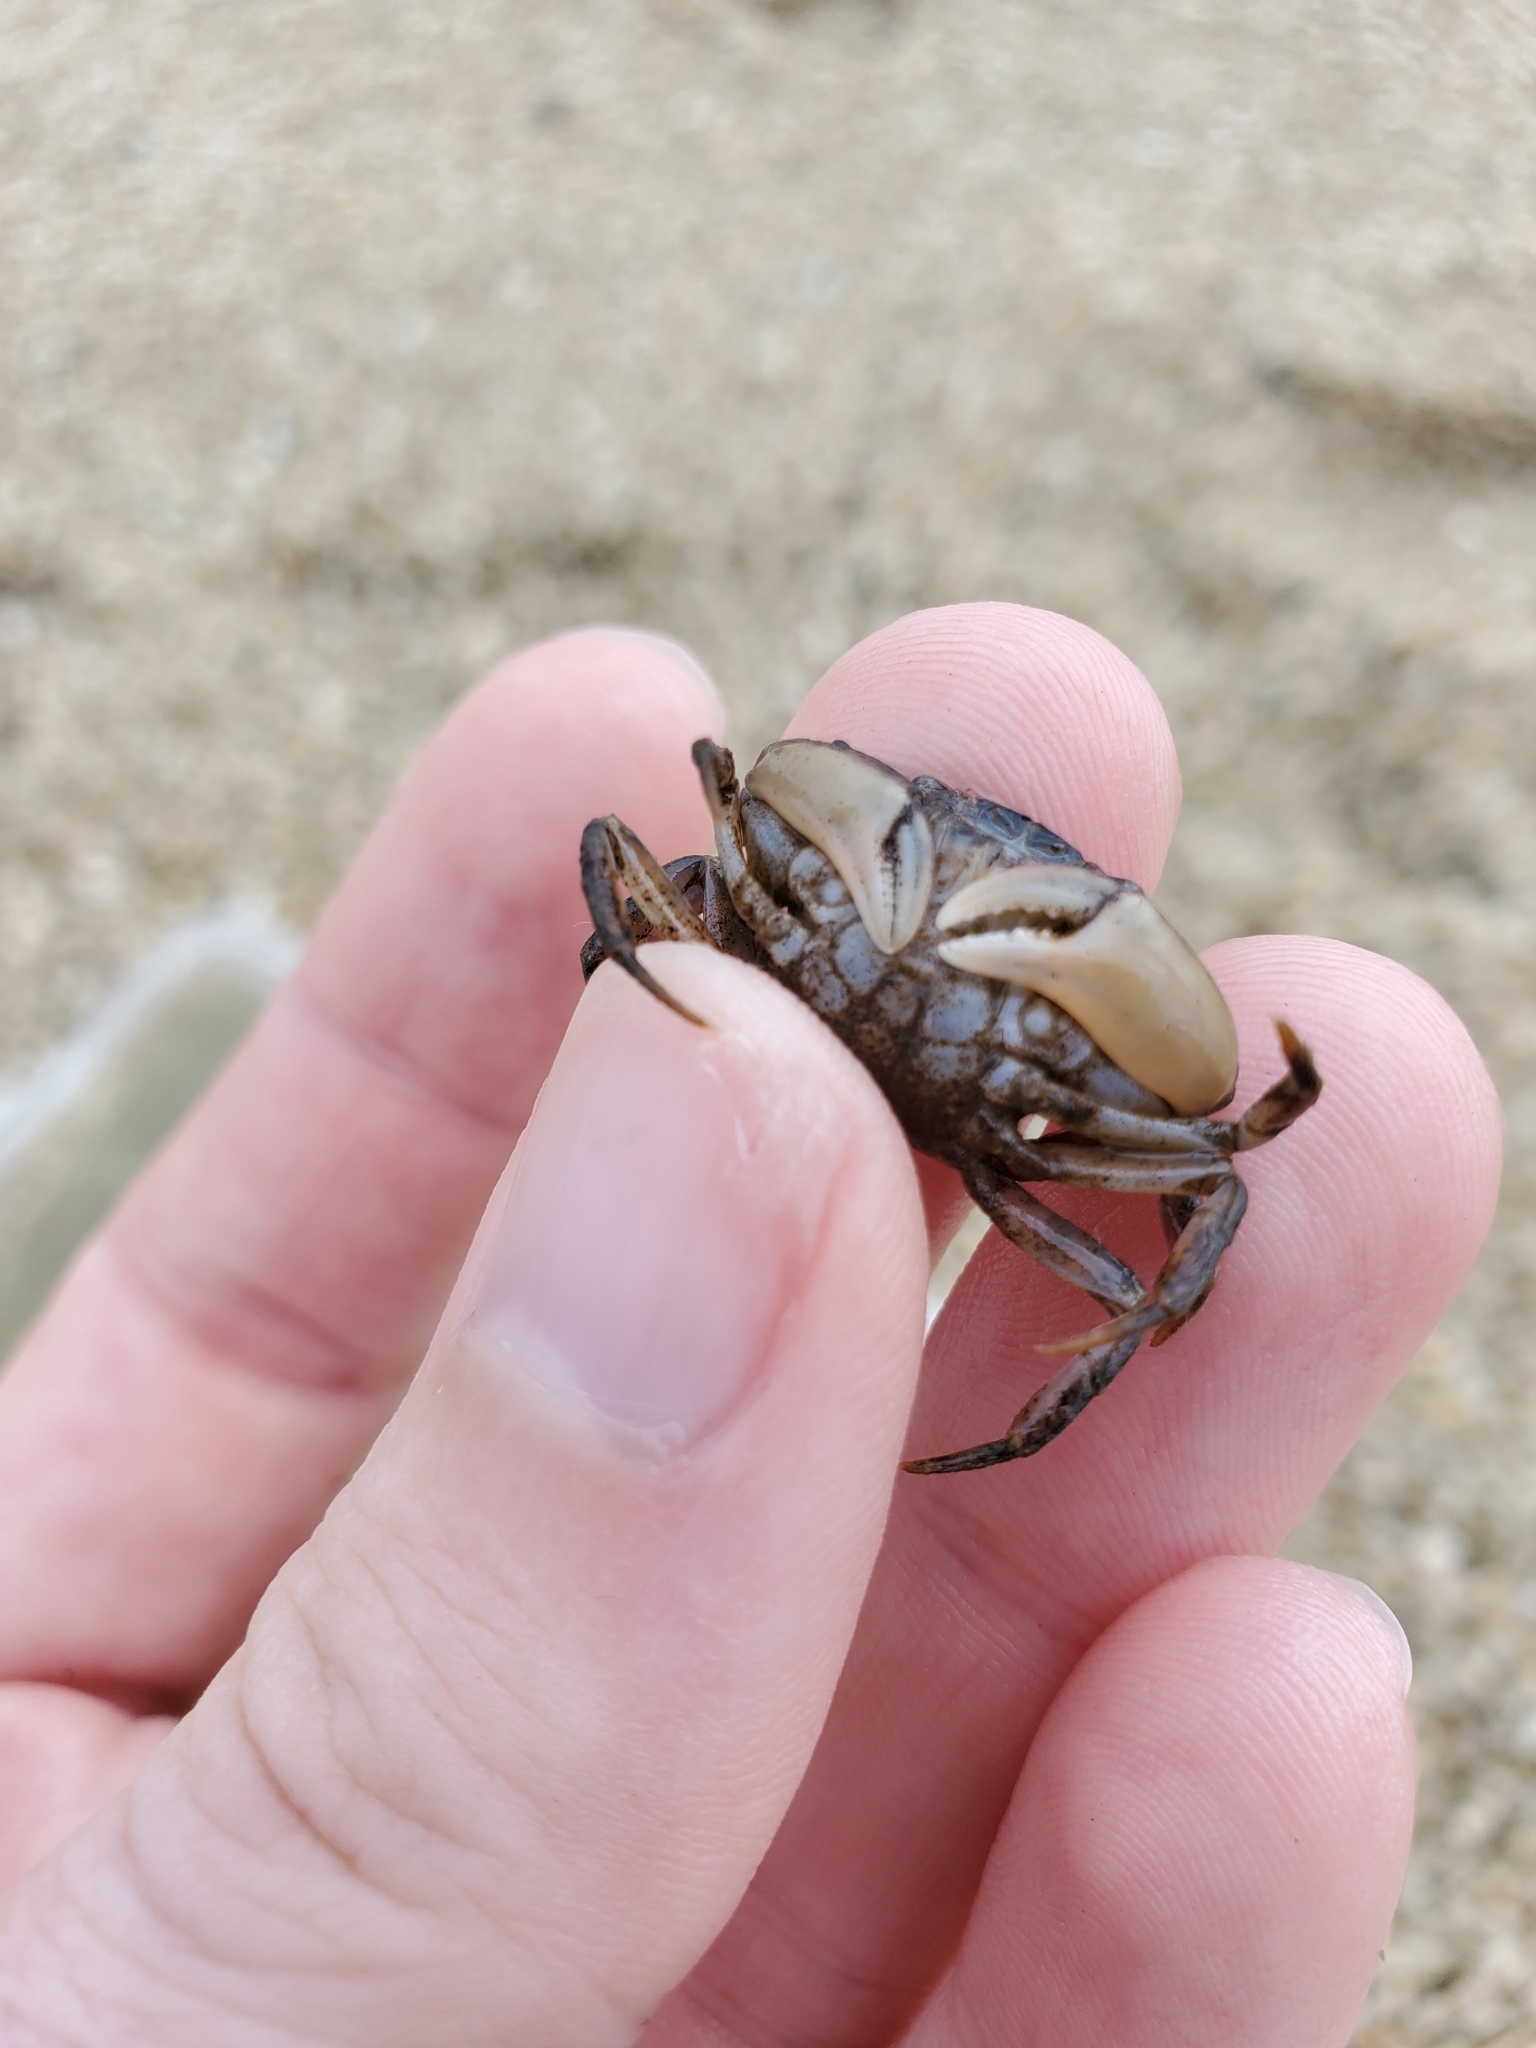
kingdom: Animalia
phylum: Arthropoda
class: Malacostraca
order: Decapoda
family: Panopeidae
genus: Rhithropanopeus
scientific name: Rhithropanopeus harrisii
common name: Dwarf crab
